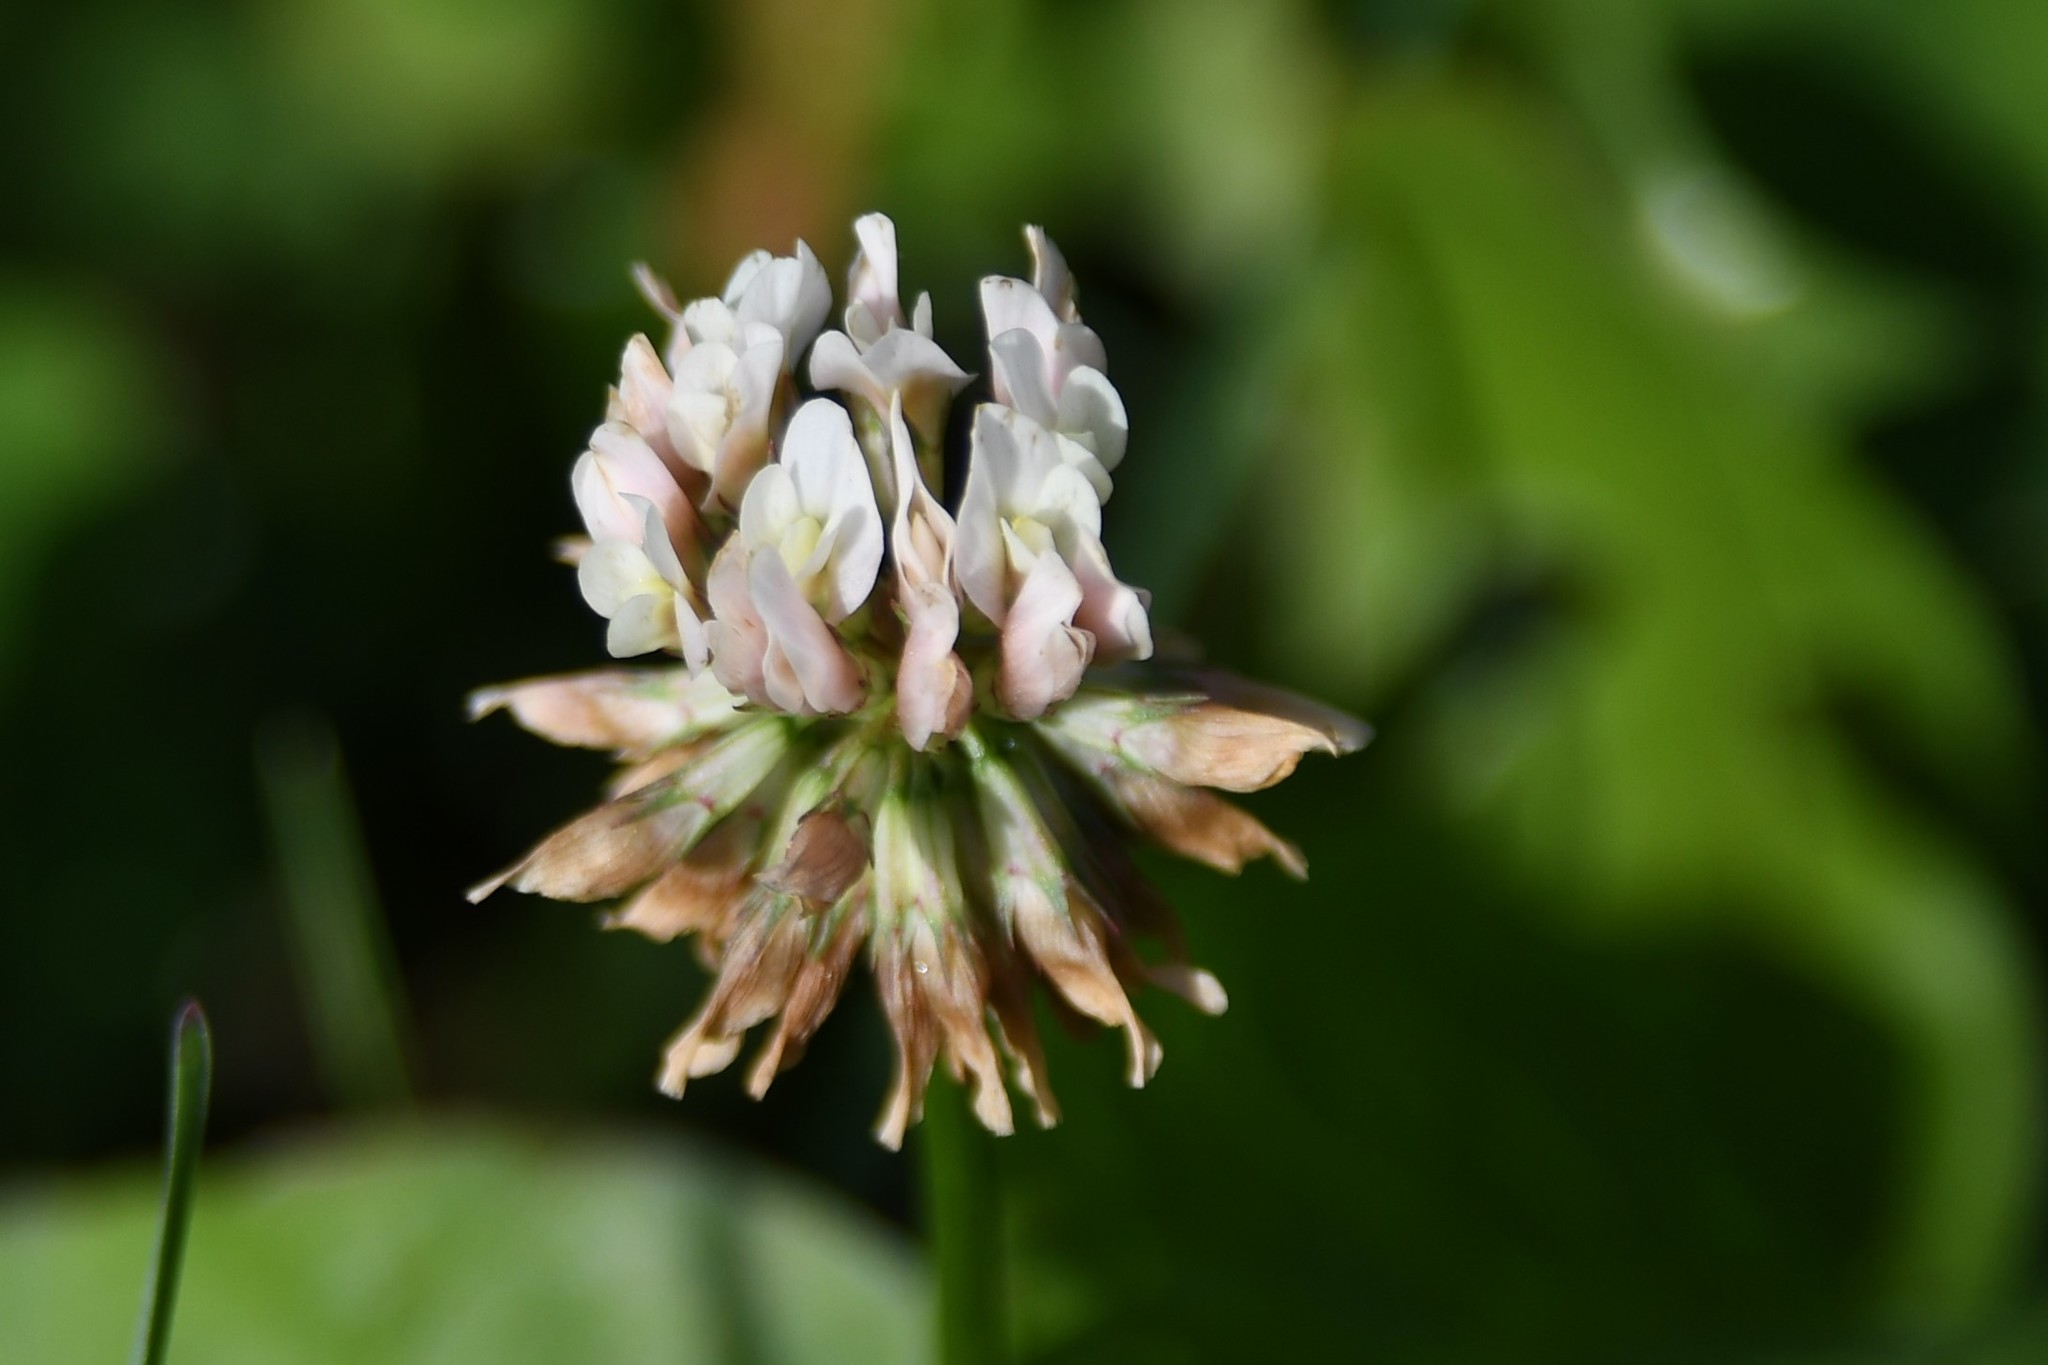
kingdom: Plantae
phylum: Tracheophyta
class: Magnoliopsida
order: Fabales
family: Fabaceae
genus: Trifolium
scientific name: Trifolium repens
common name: White clover
